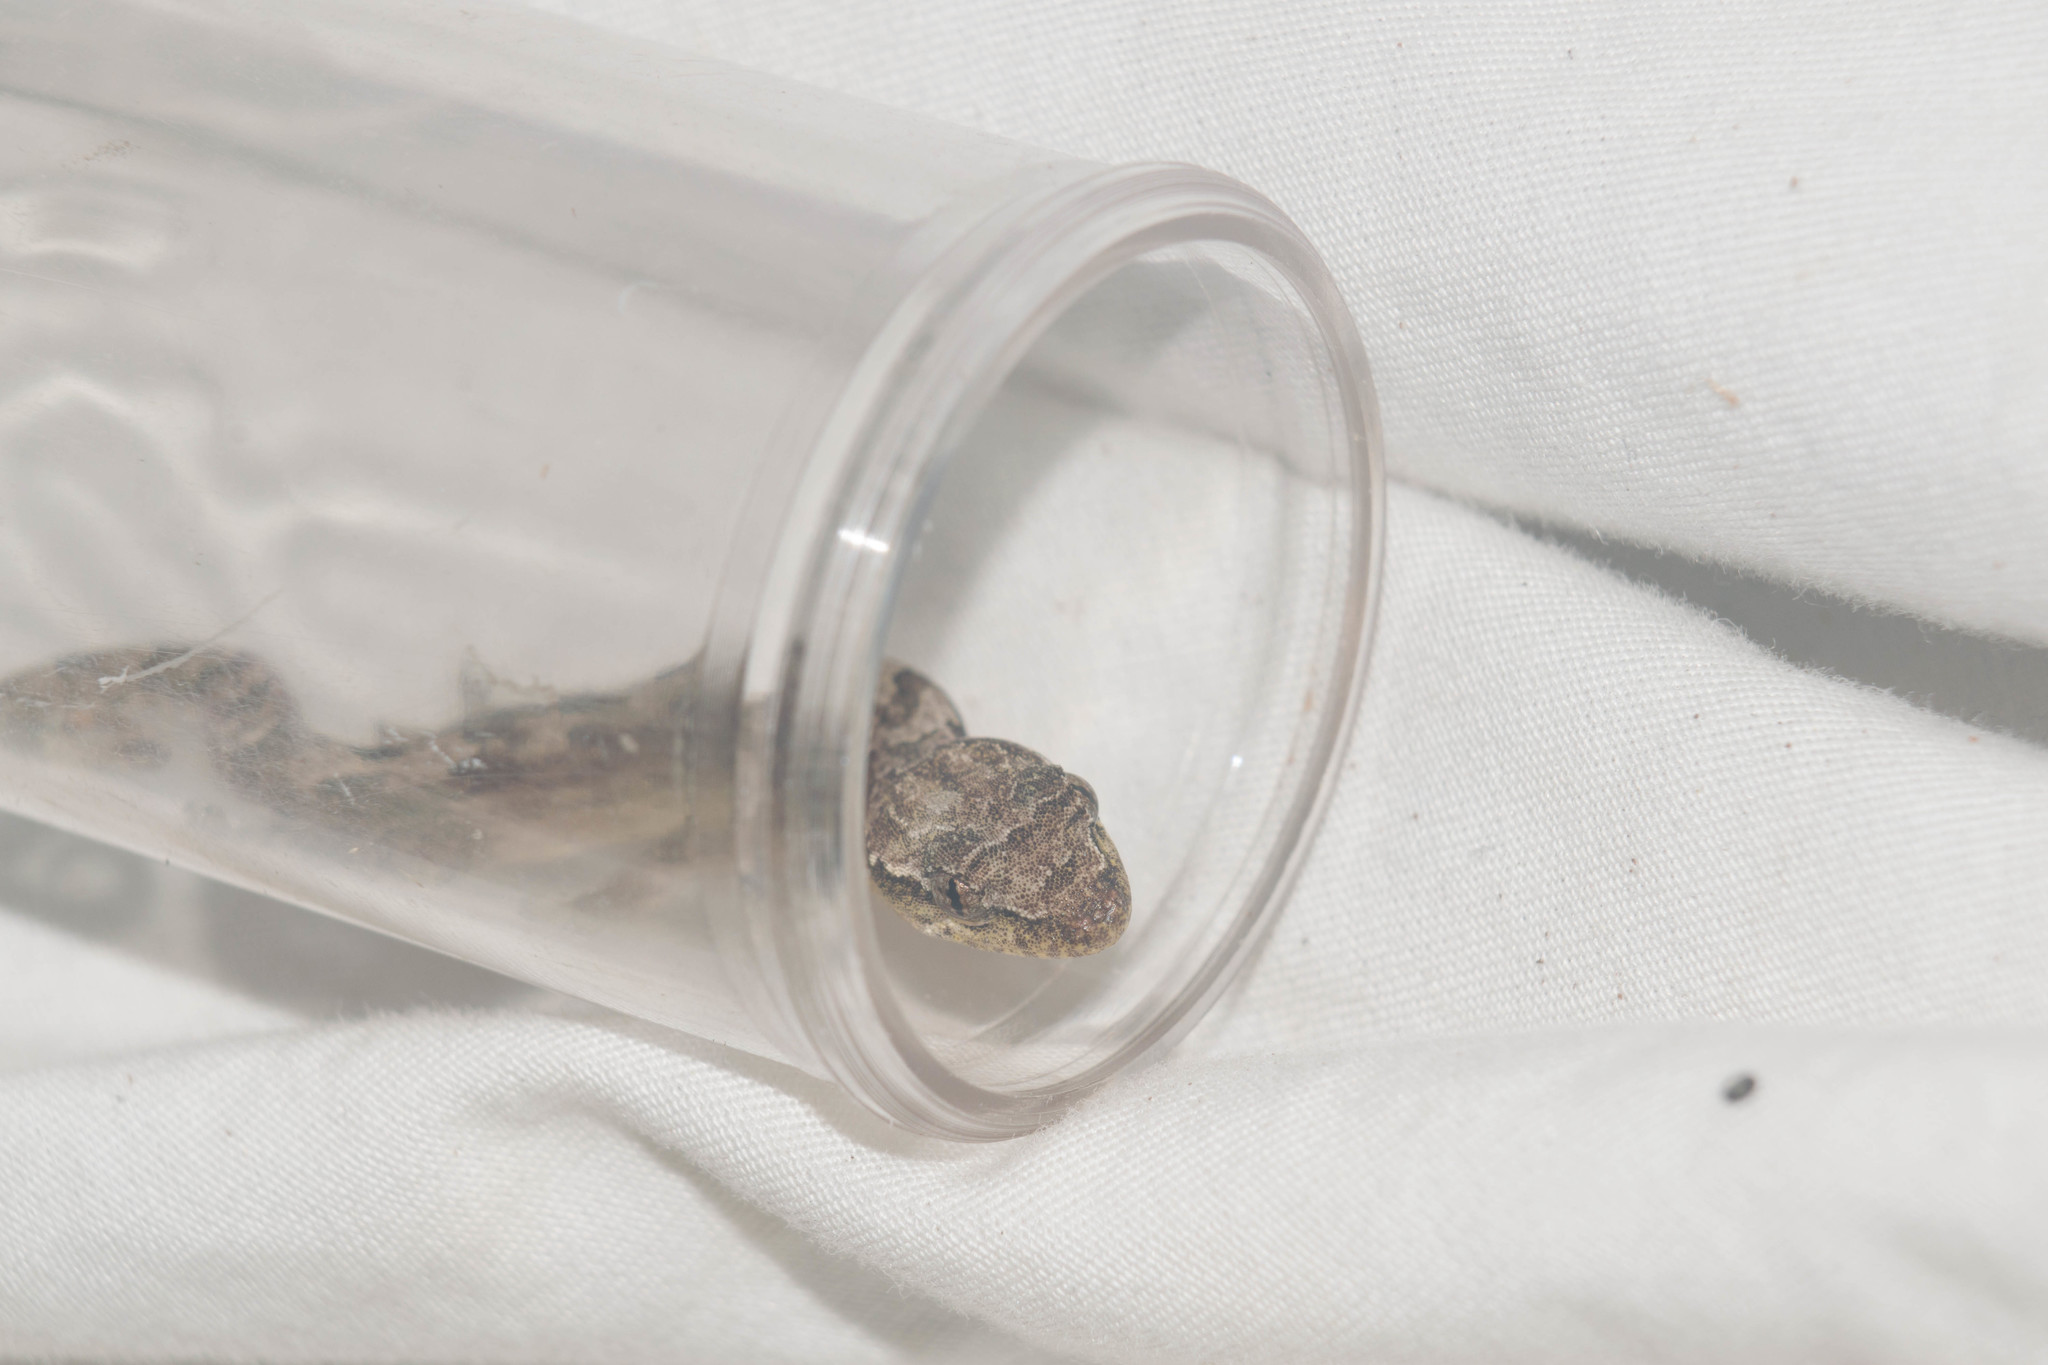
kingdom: Animalia
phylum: Chordata
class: Squamata
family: Gekkonidae
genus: Lepidodactylus
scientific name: Lepidodactylus lugubris
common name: Mourning gecko
